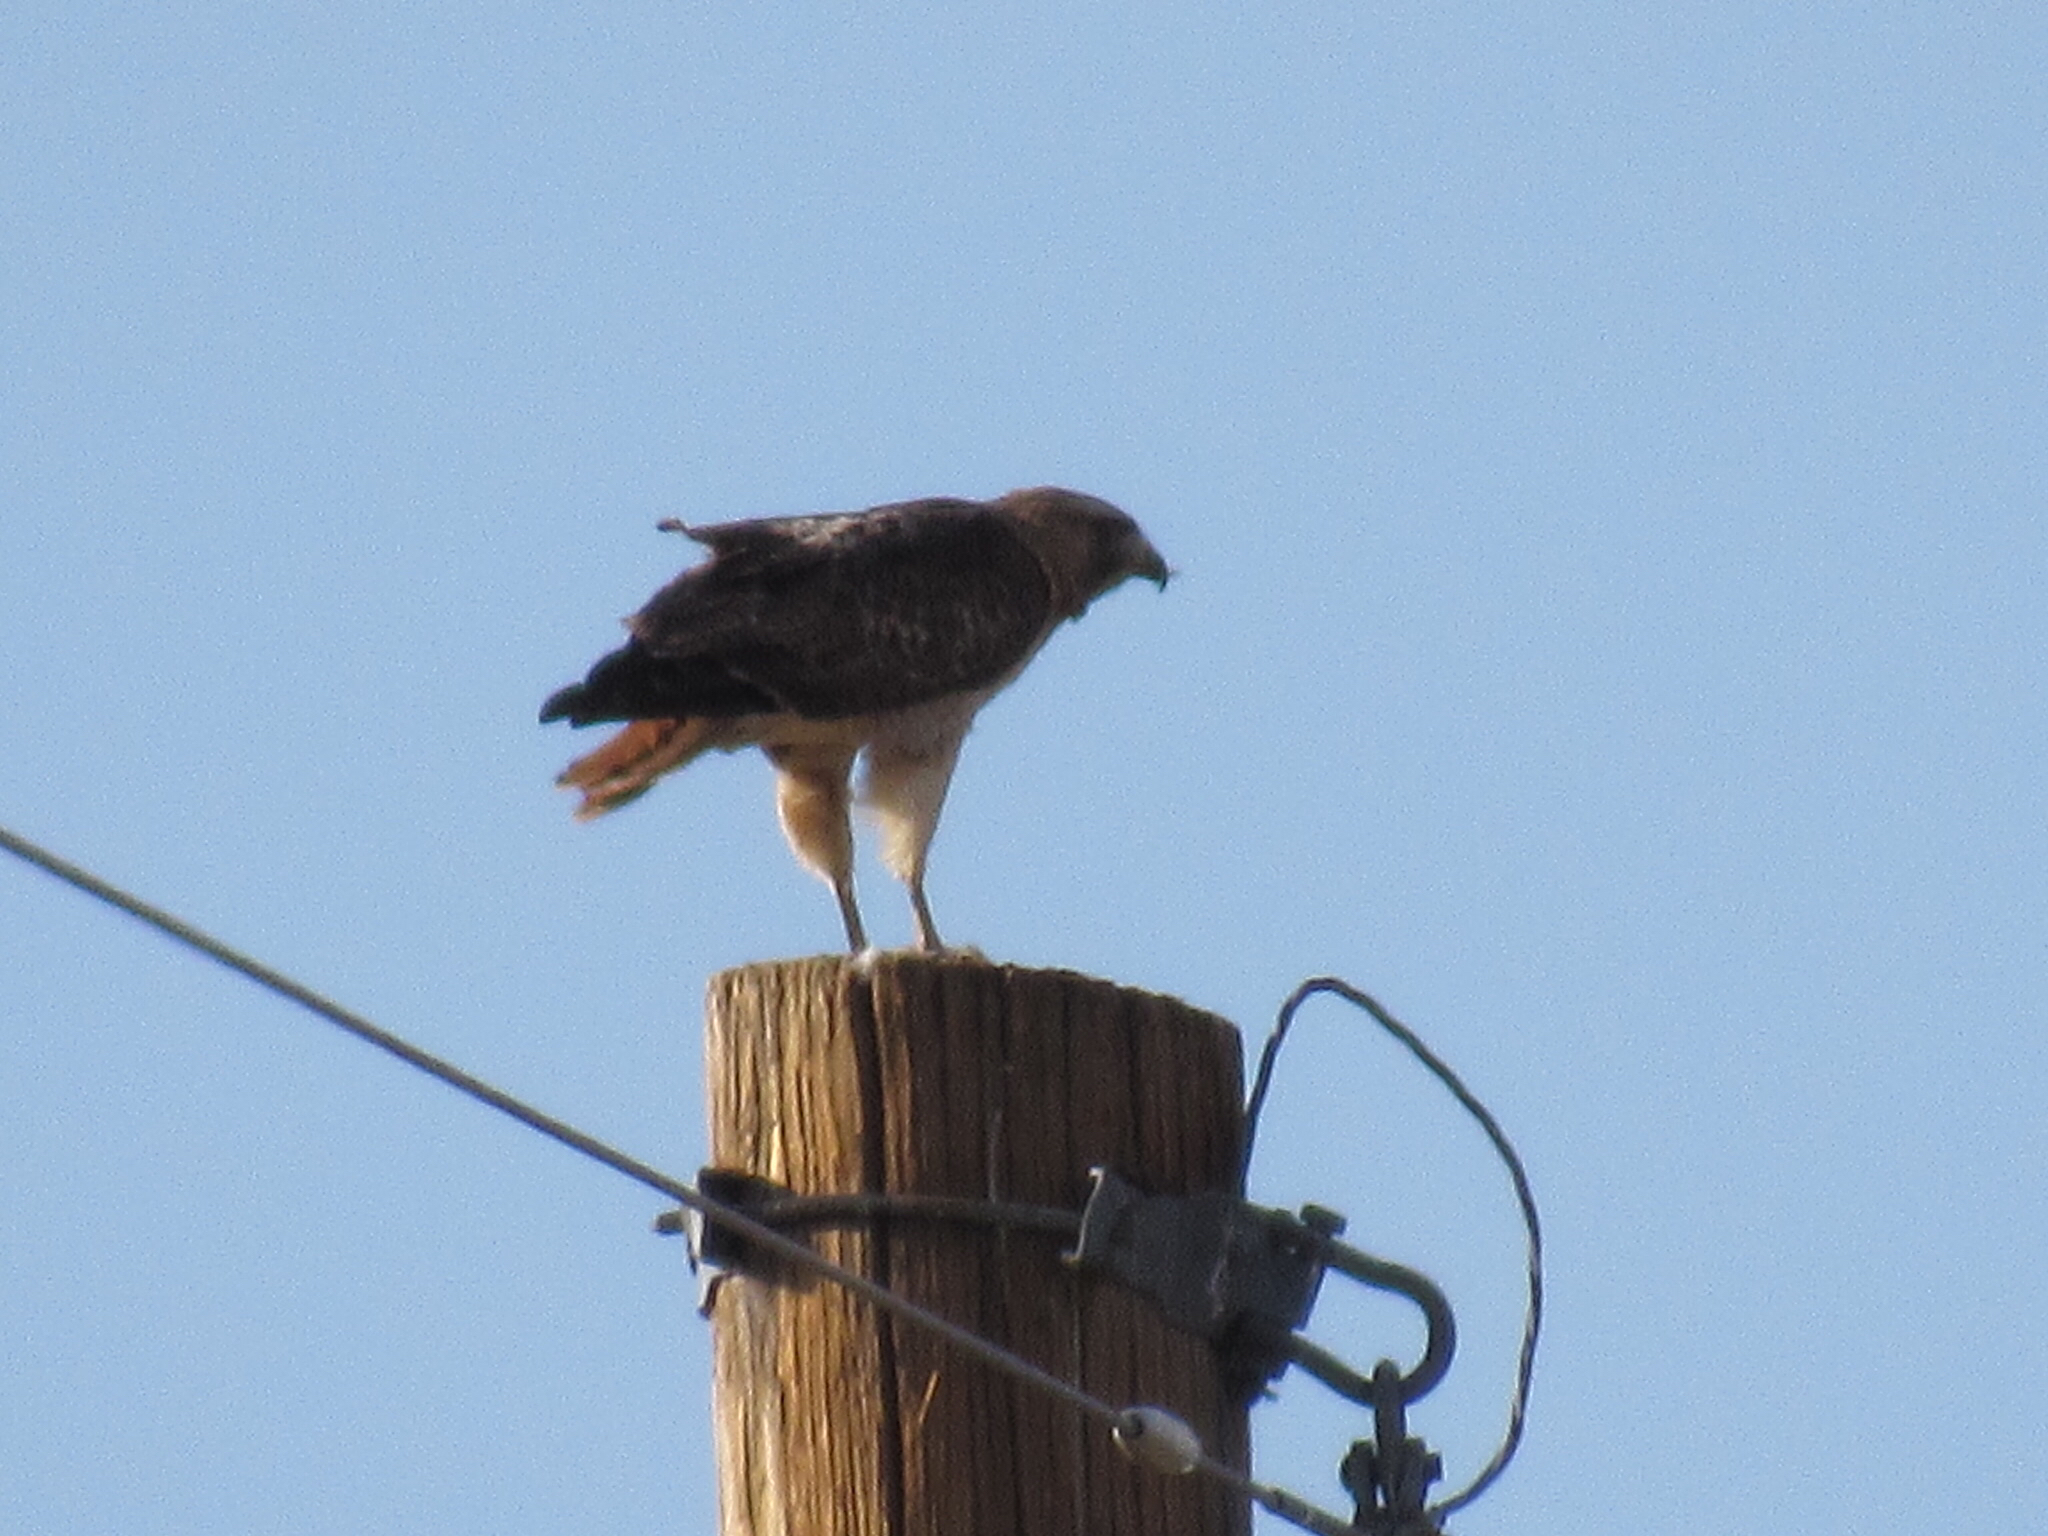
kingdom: Animalia
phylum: Chordata
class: Aves
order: Accipitriformes
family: Accipitridae
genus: Buteo
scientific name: Buteo jamaicensis
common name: Red-tailed hawk
